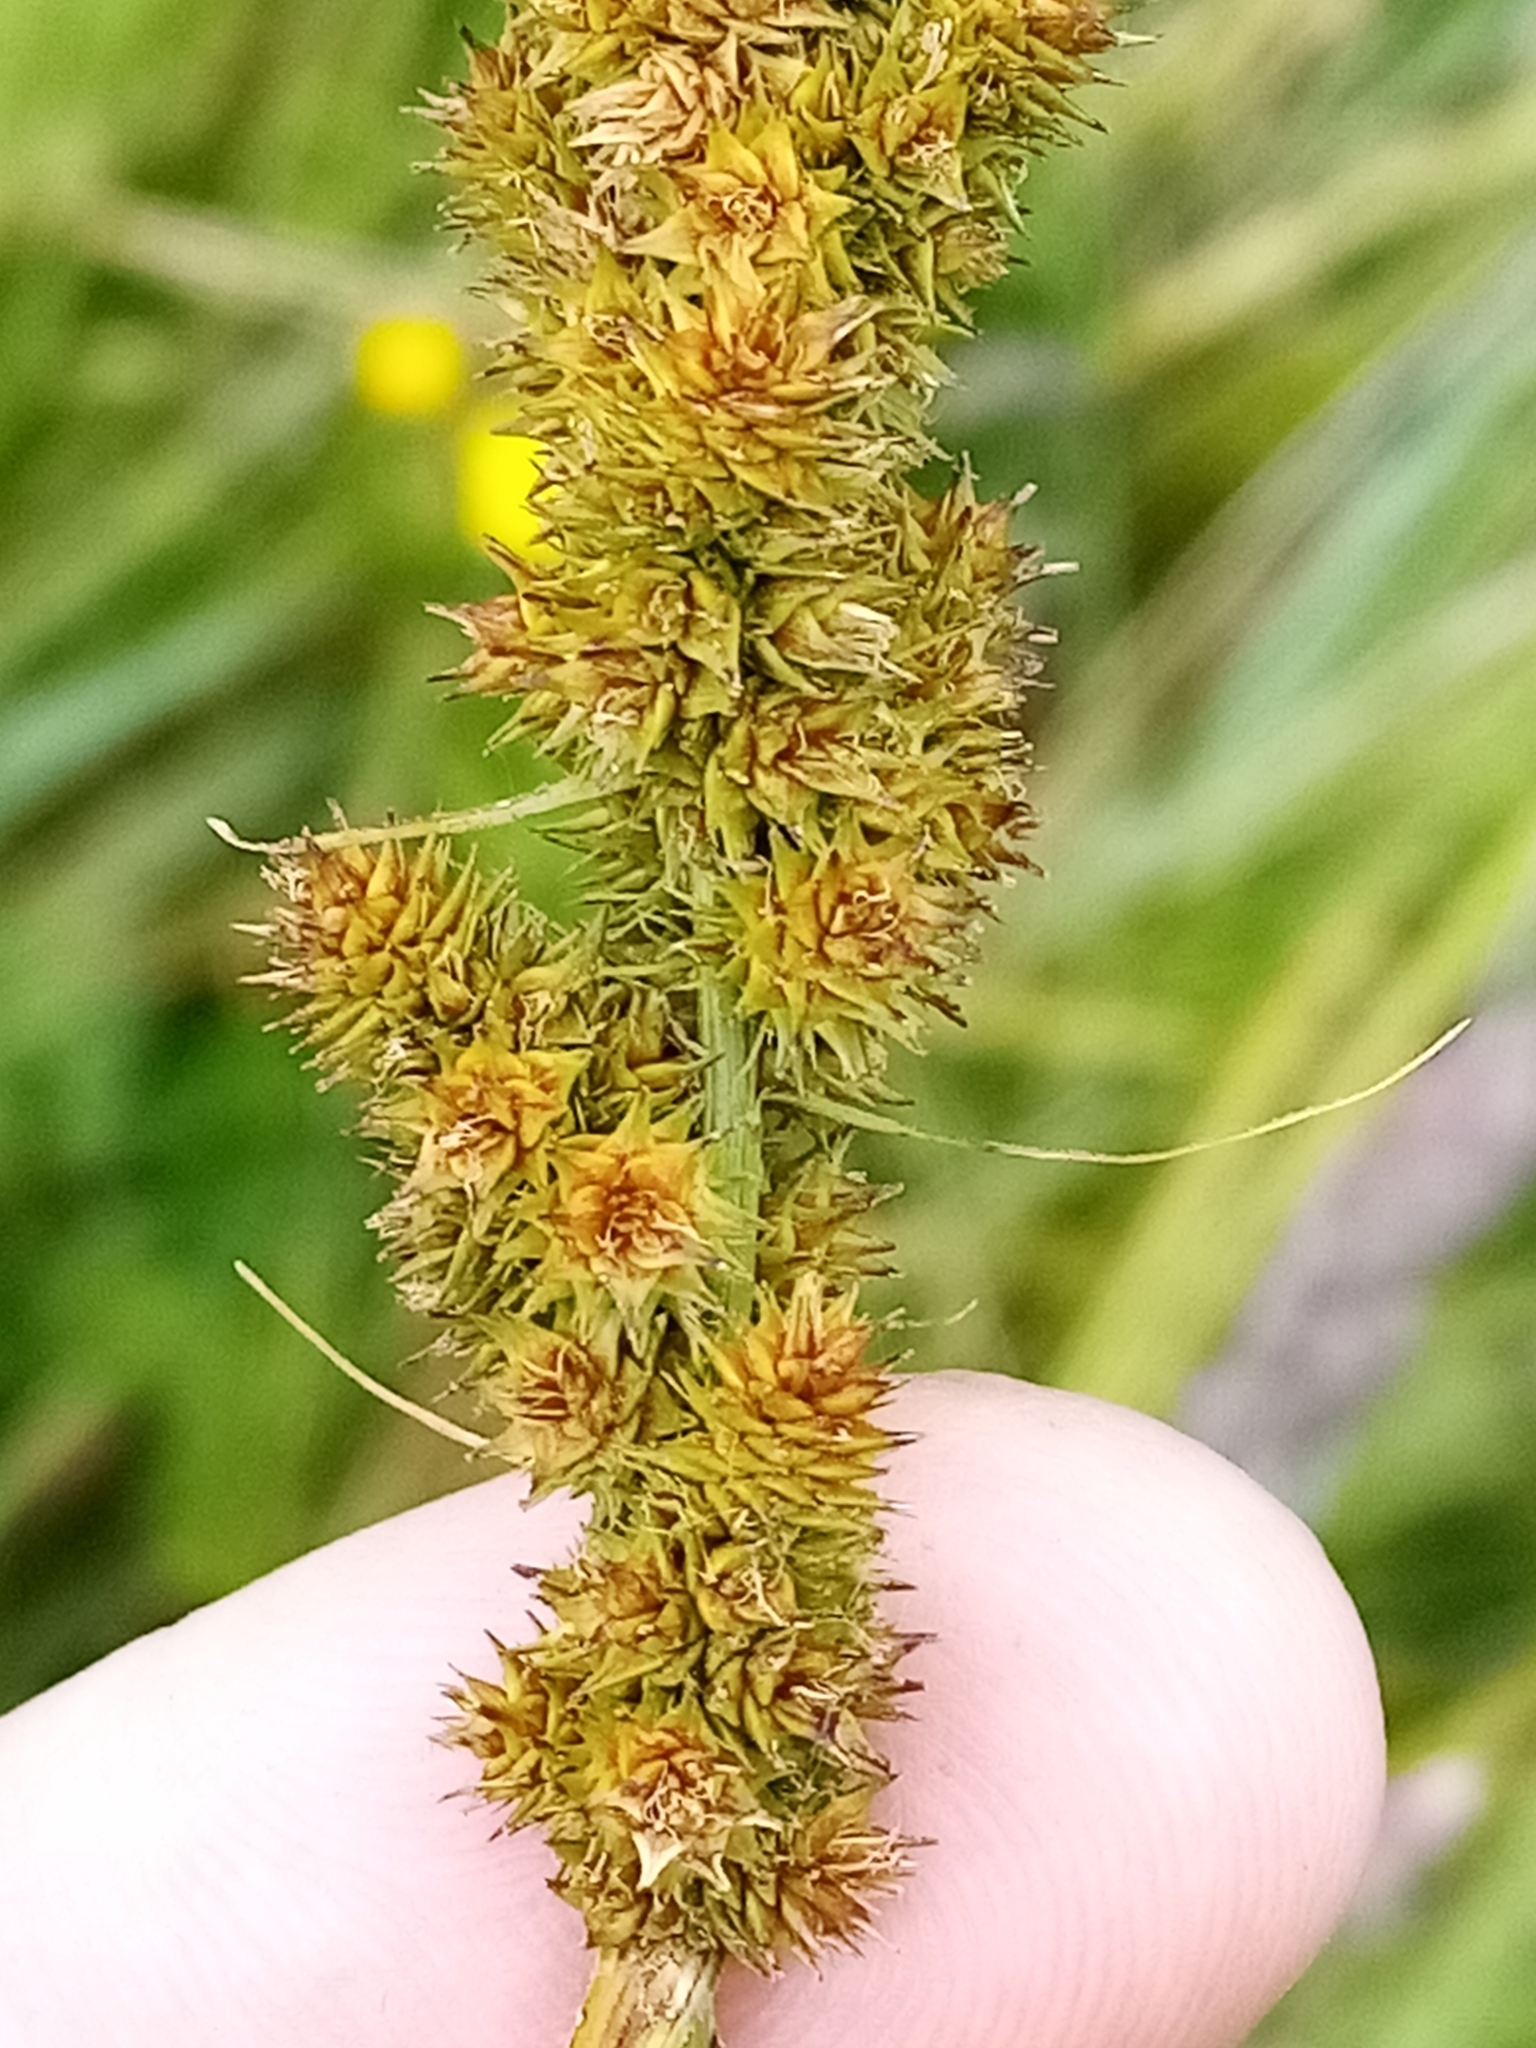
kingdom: Plantae
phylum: Tracheophyta
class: Liliopsida
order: Poales
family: Cyperaceae
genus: Carex
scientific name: Carex vulpinoidea
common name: American fox-sedge
